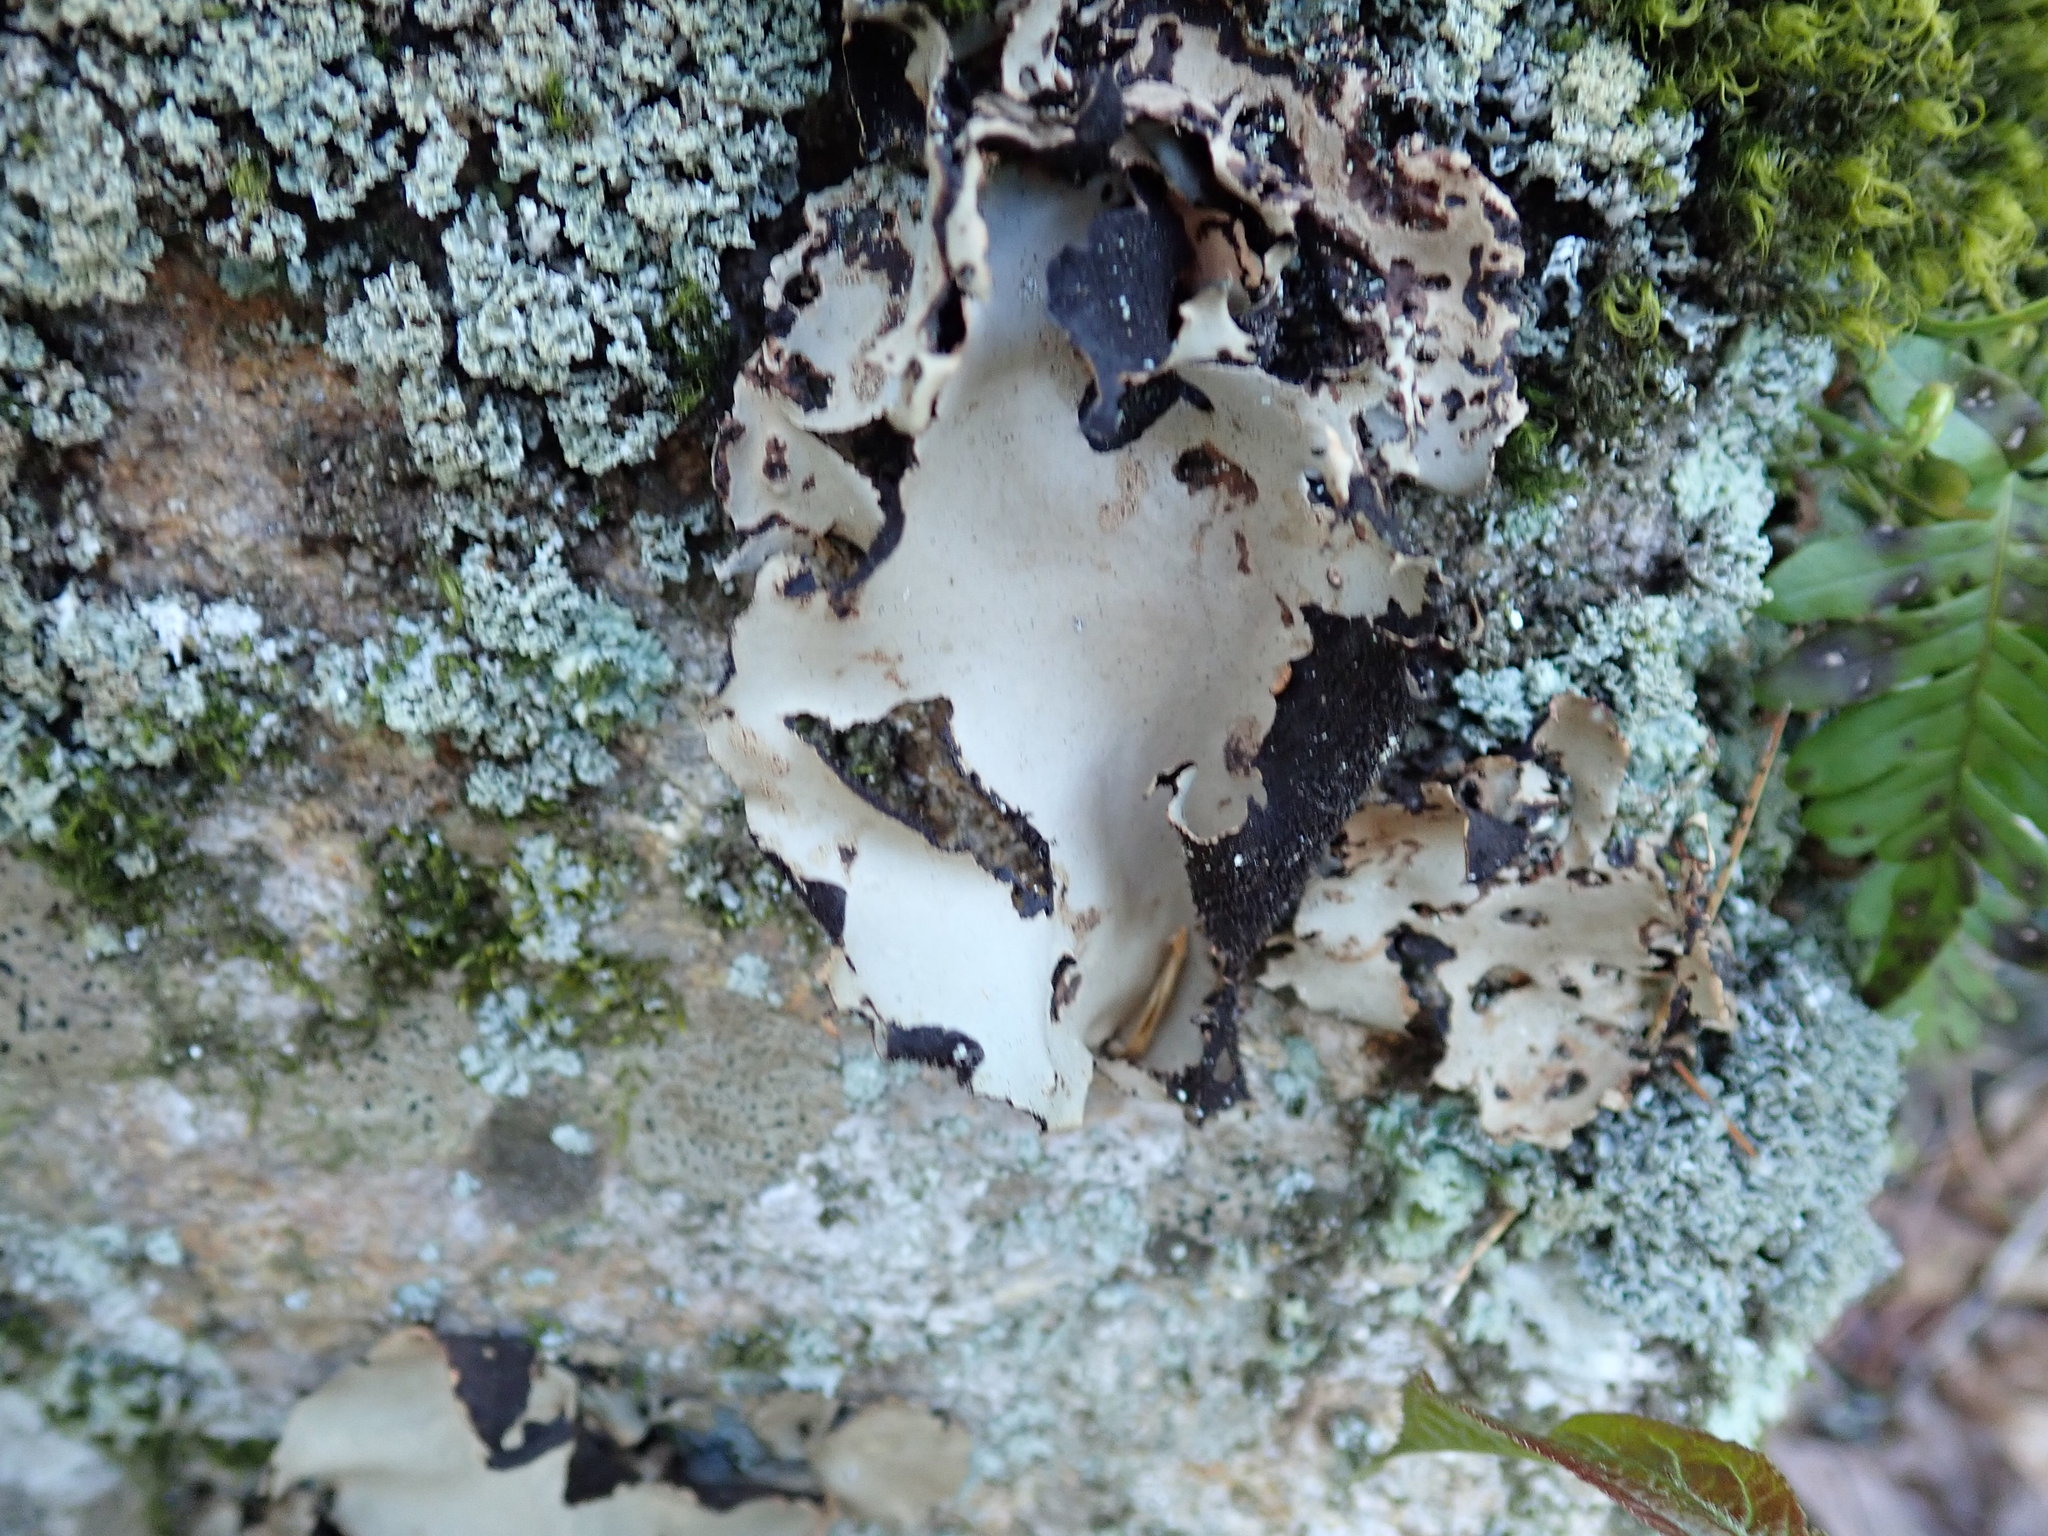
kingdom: Fungi
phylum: Ascomycota
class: Lecanoromycetes
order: Umbilicariales
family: Umbilicariaceae
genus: Umbilicaria
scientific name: Umbilicaria mammulata
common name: Smooth rock tripe
